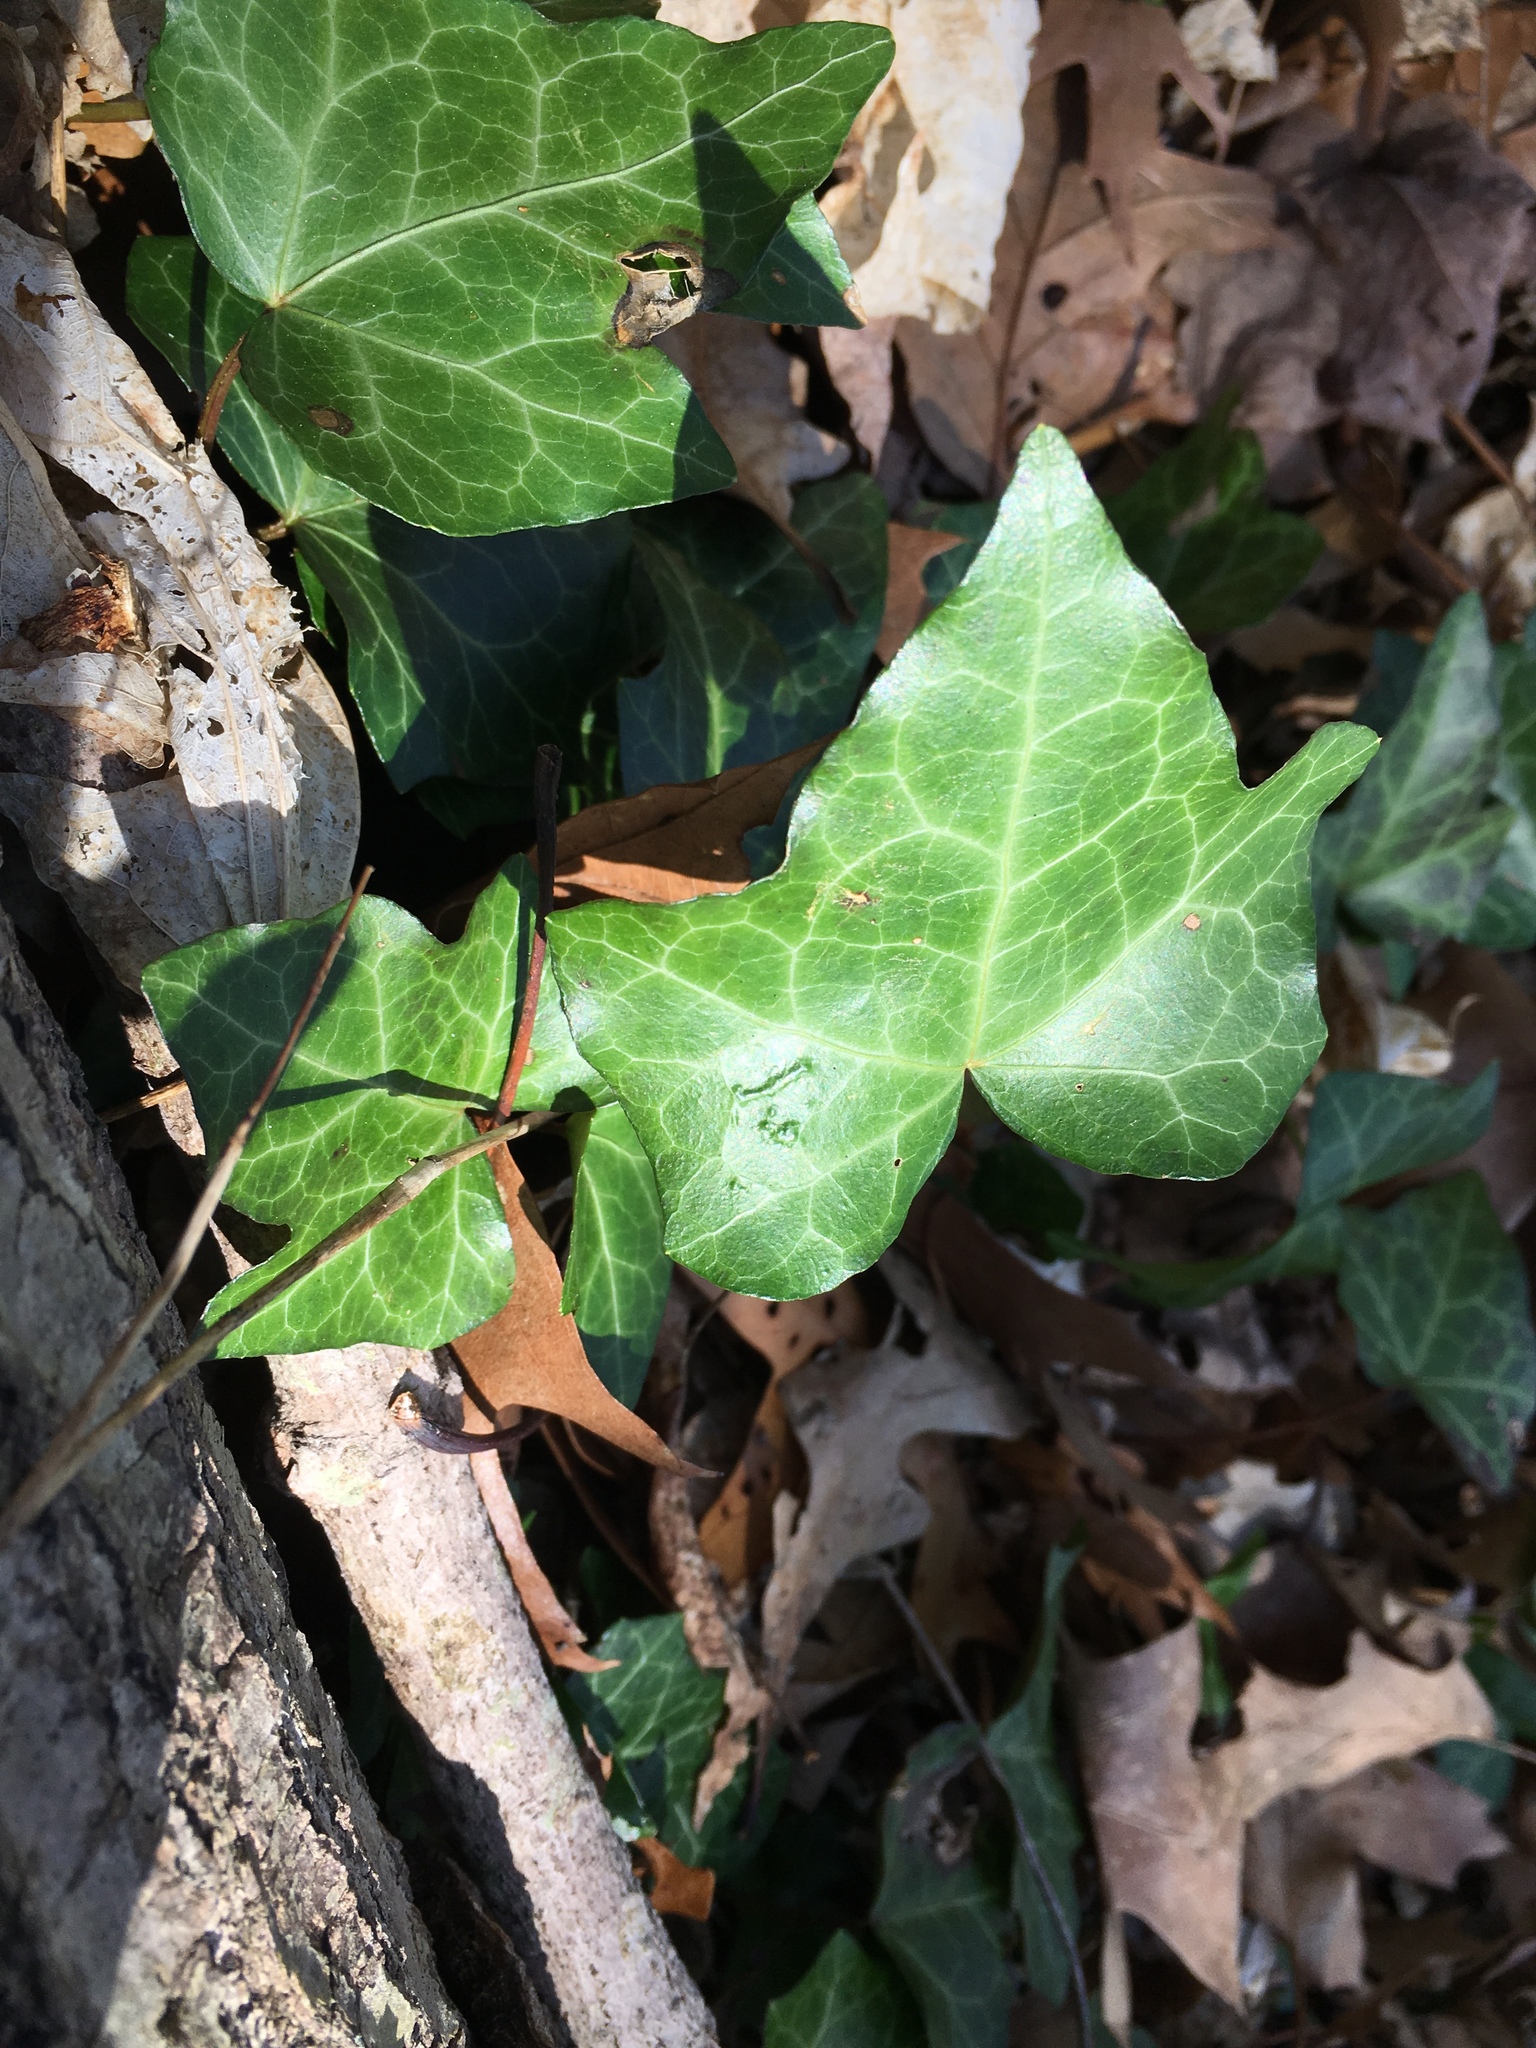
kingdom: Plantae
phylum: Tracheophyta
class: Magnoliopsida
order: Apiales
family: Araliaceae
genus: Hedera
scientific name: Hedera helix
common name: Ivy
